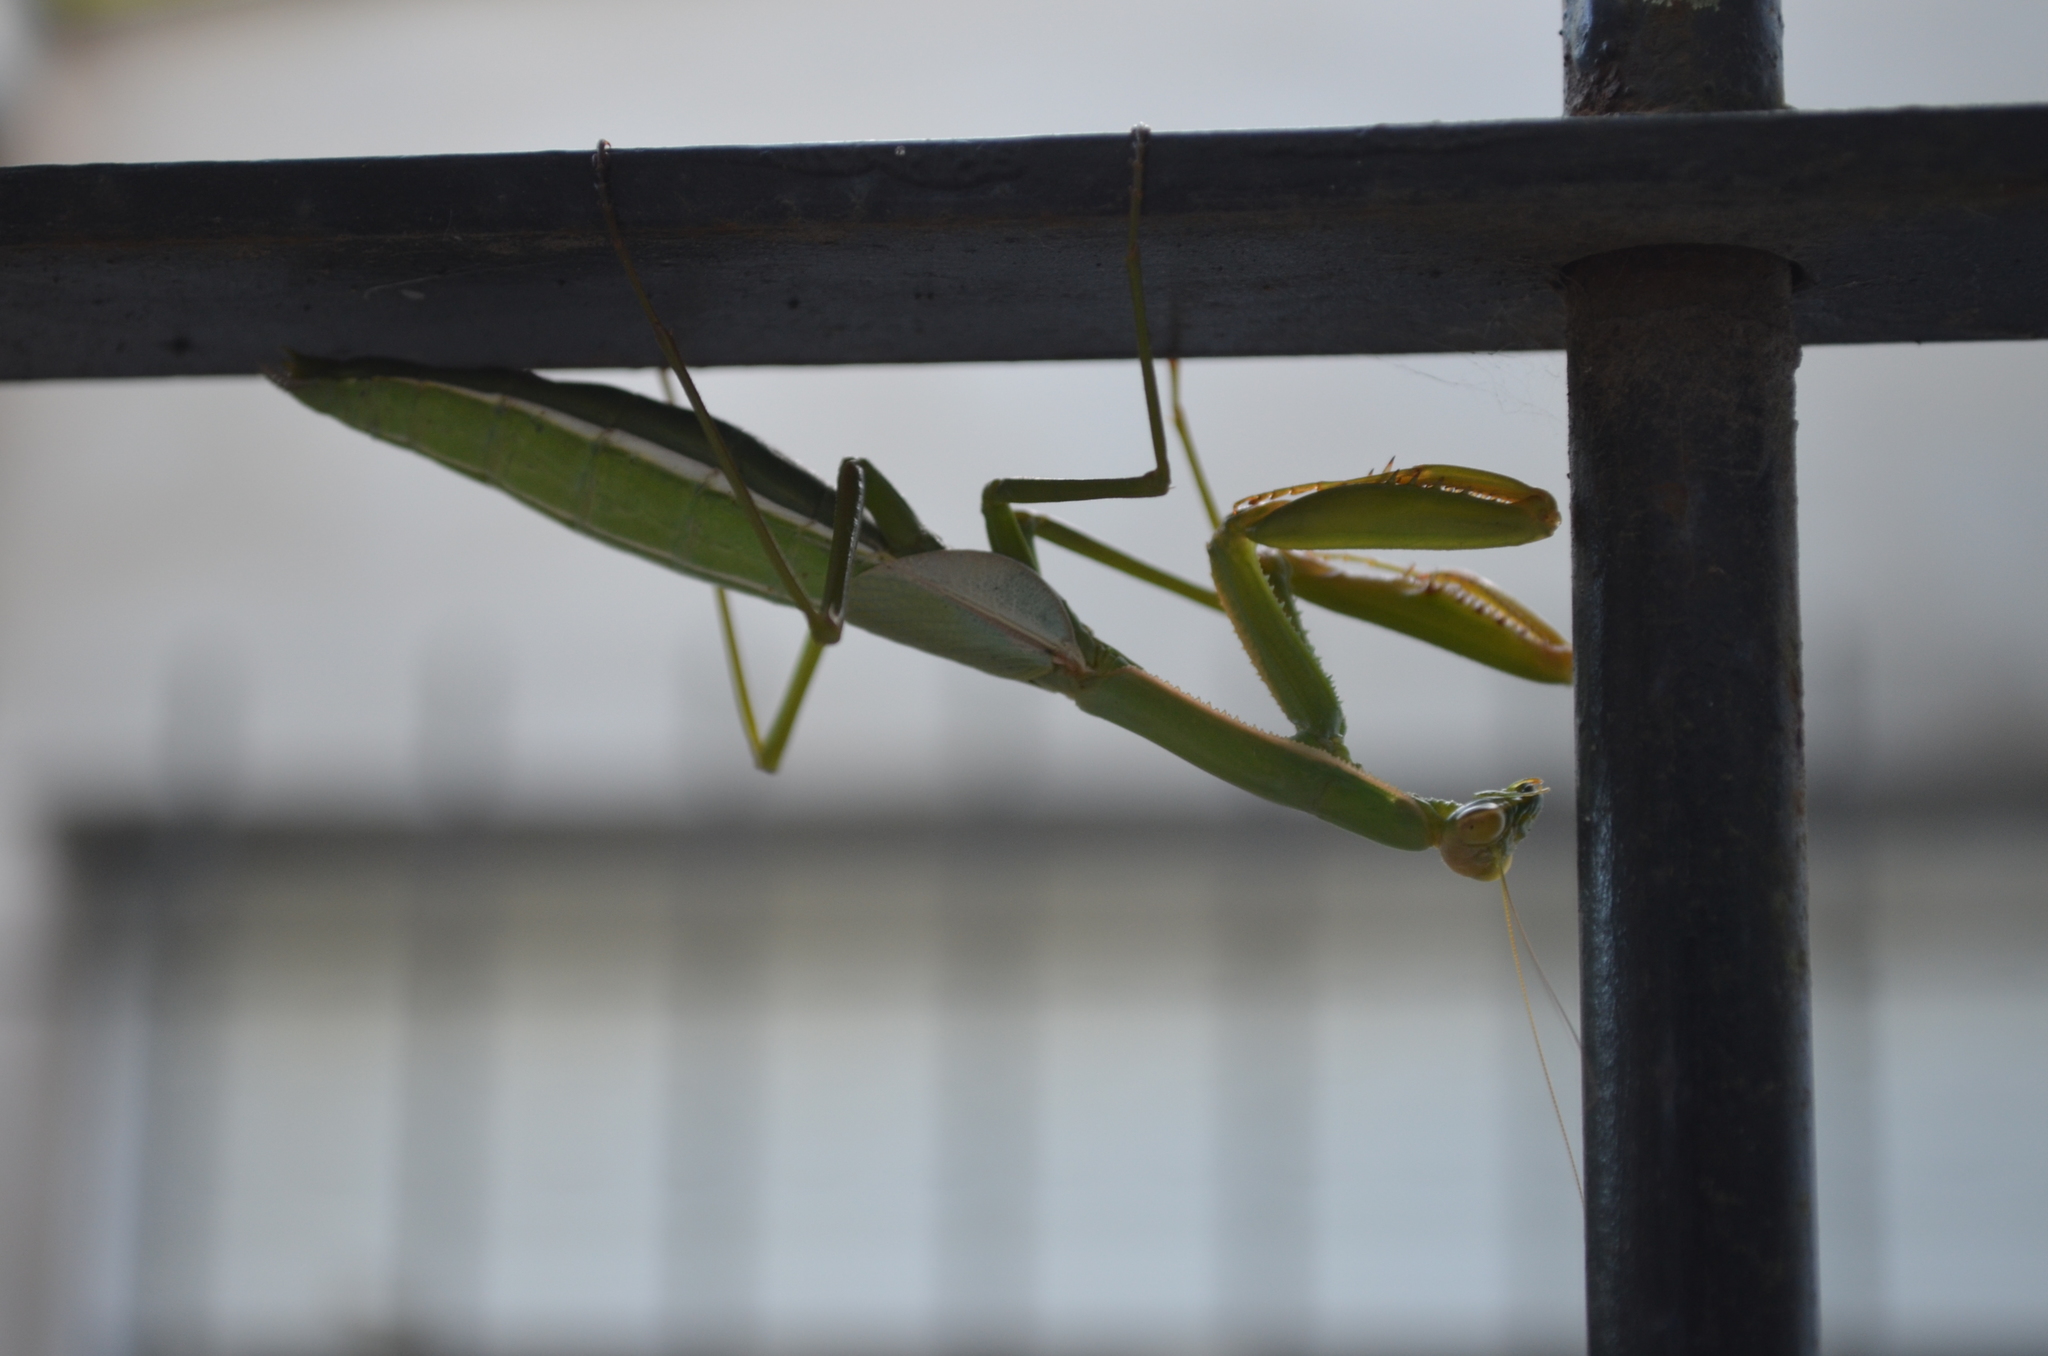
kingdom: Animalia
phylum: Arthropoda
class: Insecta
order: Mantodea
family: Coptopterygidae
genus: Coptopteryx
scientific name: Coptopteryx argentina
